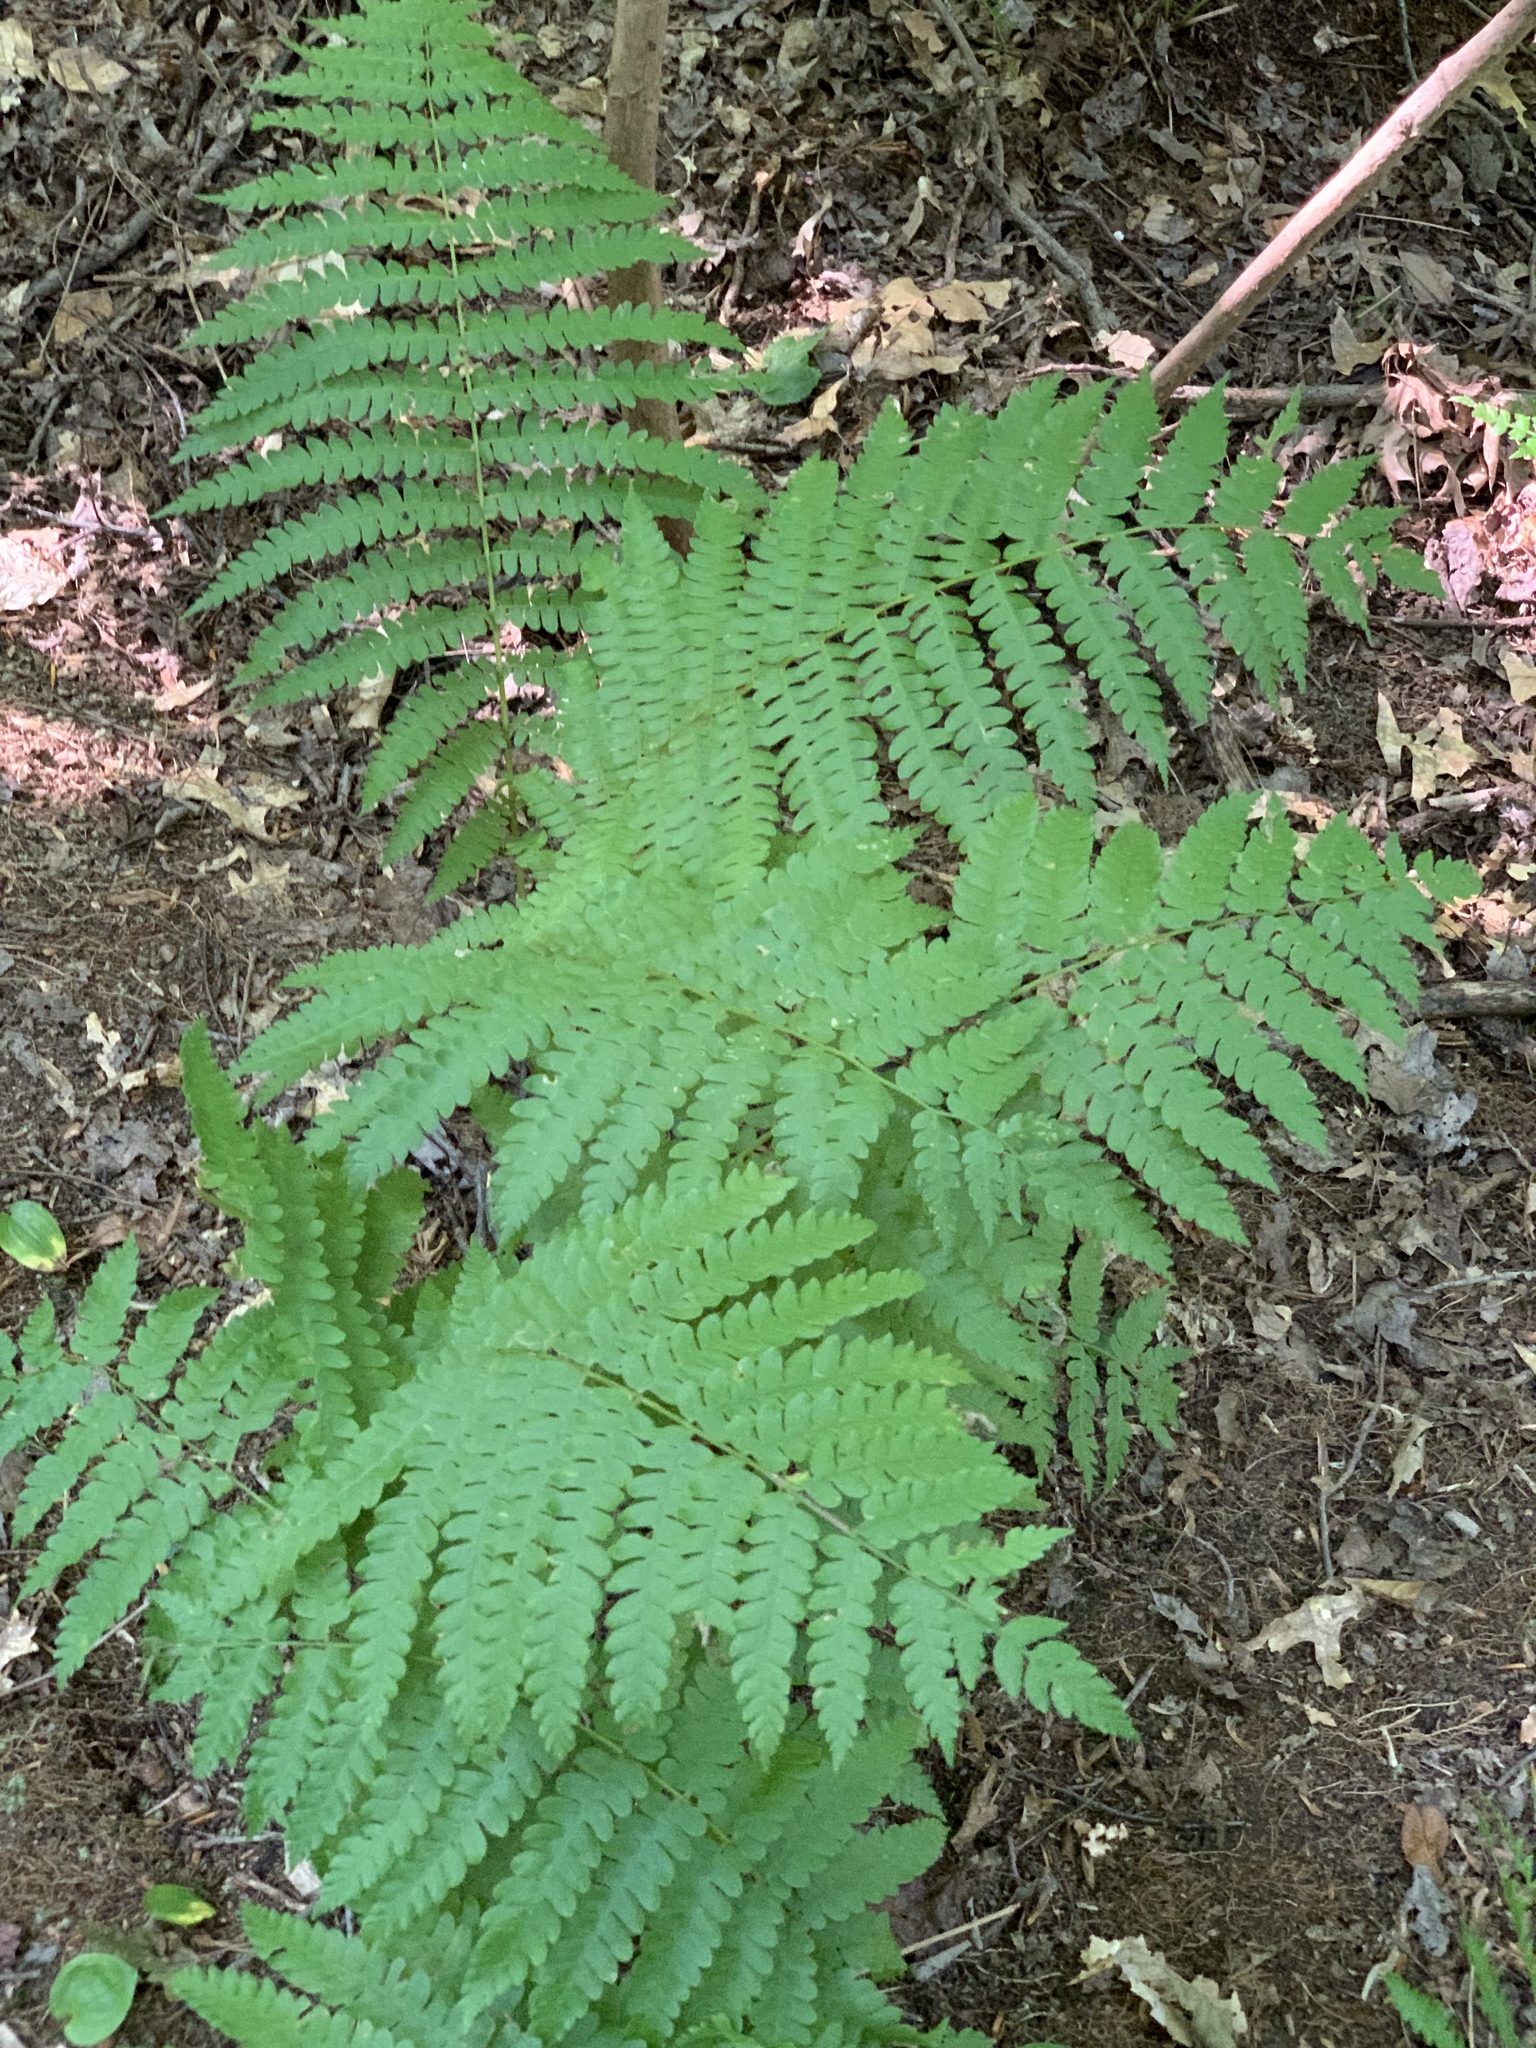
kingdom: Plantae
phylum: Tracheophyta
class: Polypodiopsida
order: Osmundales
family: Osmundaceae
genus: Osmundastrum
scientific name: Osmundastrum cinnamomeum
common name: Cinnamon fern
